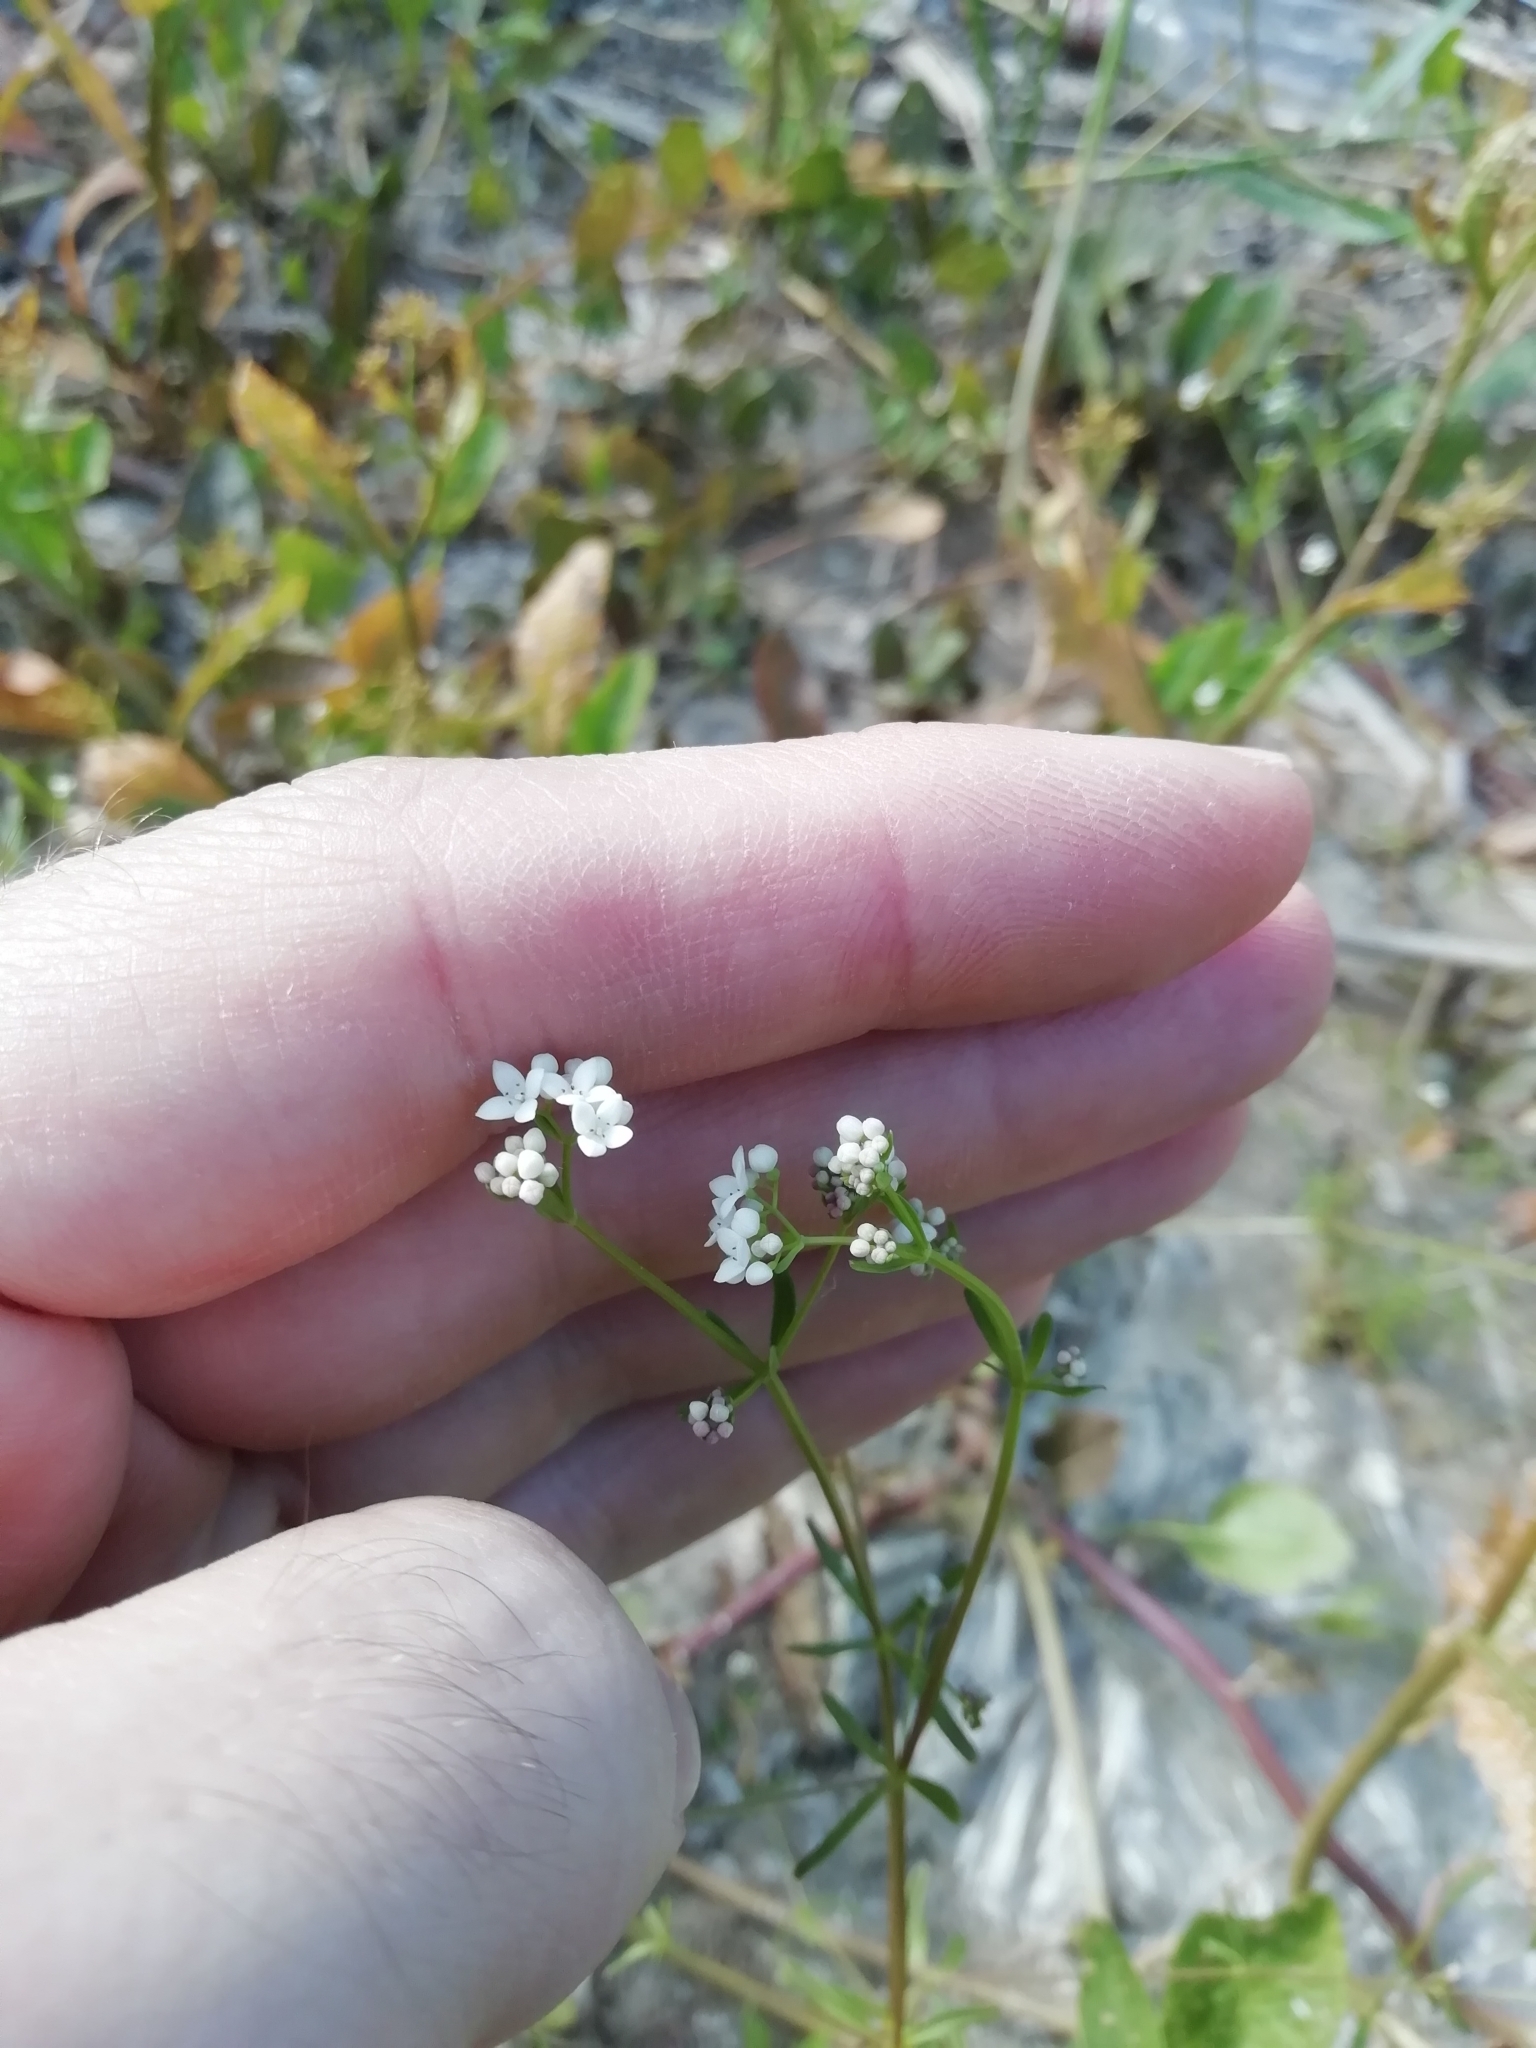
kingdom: Plantae
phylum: Tracheophyta
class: Magnoliopsida
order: Gentianales
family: Rubiaceae
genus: Galium
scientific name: Galium palustre
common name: Common marsh-bedstraw
